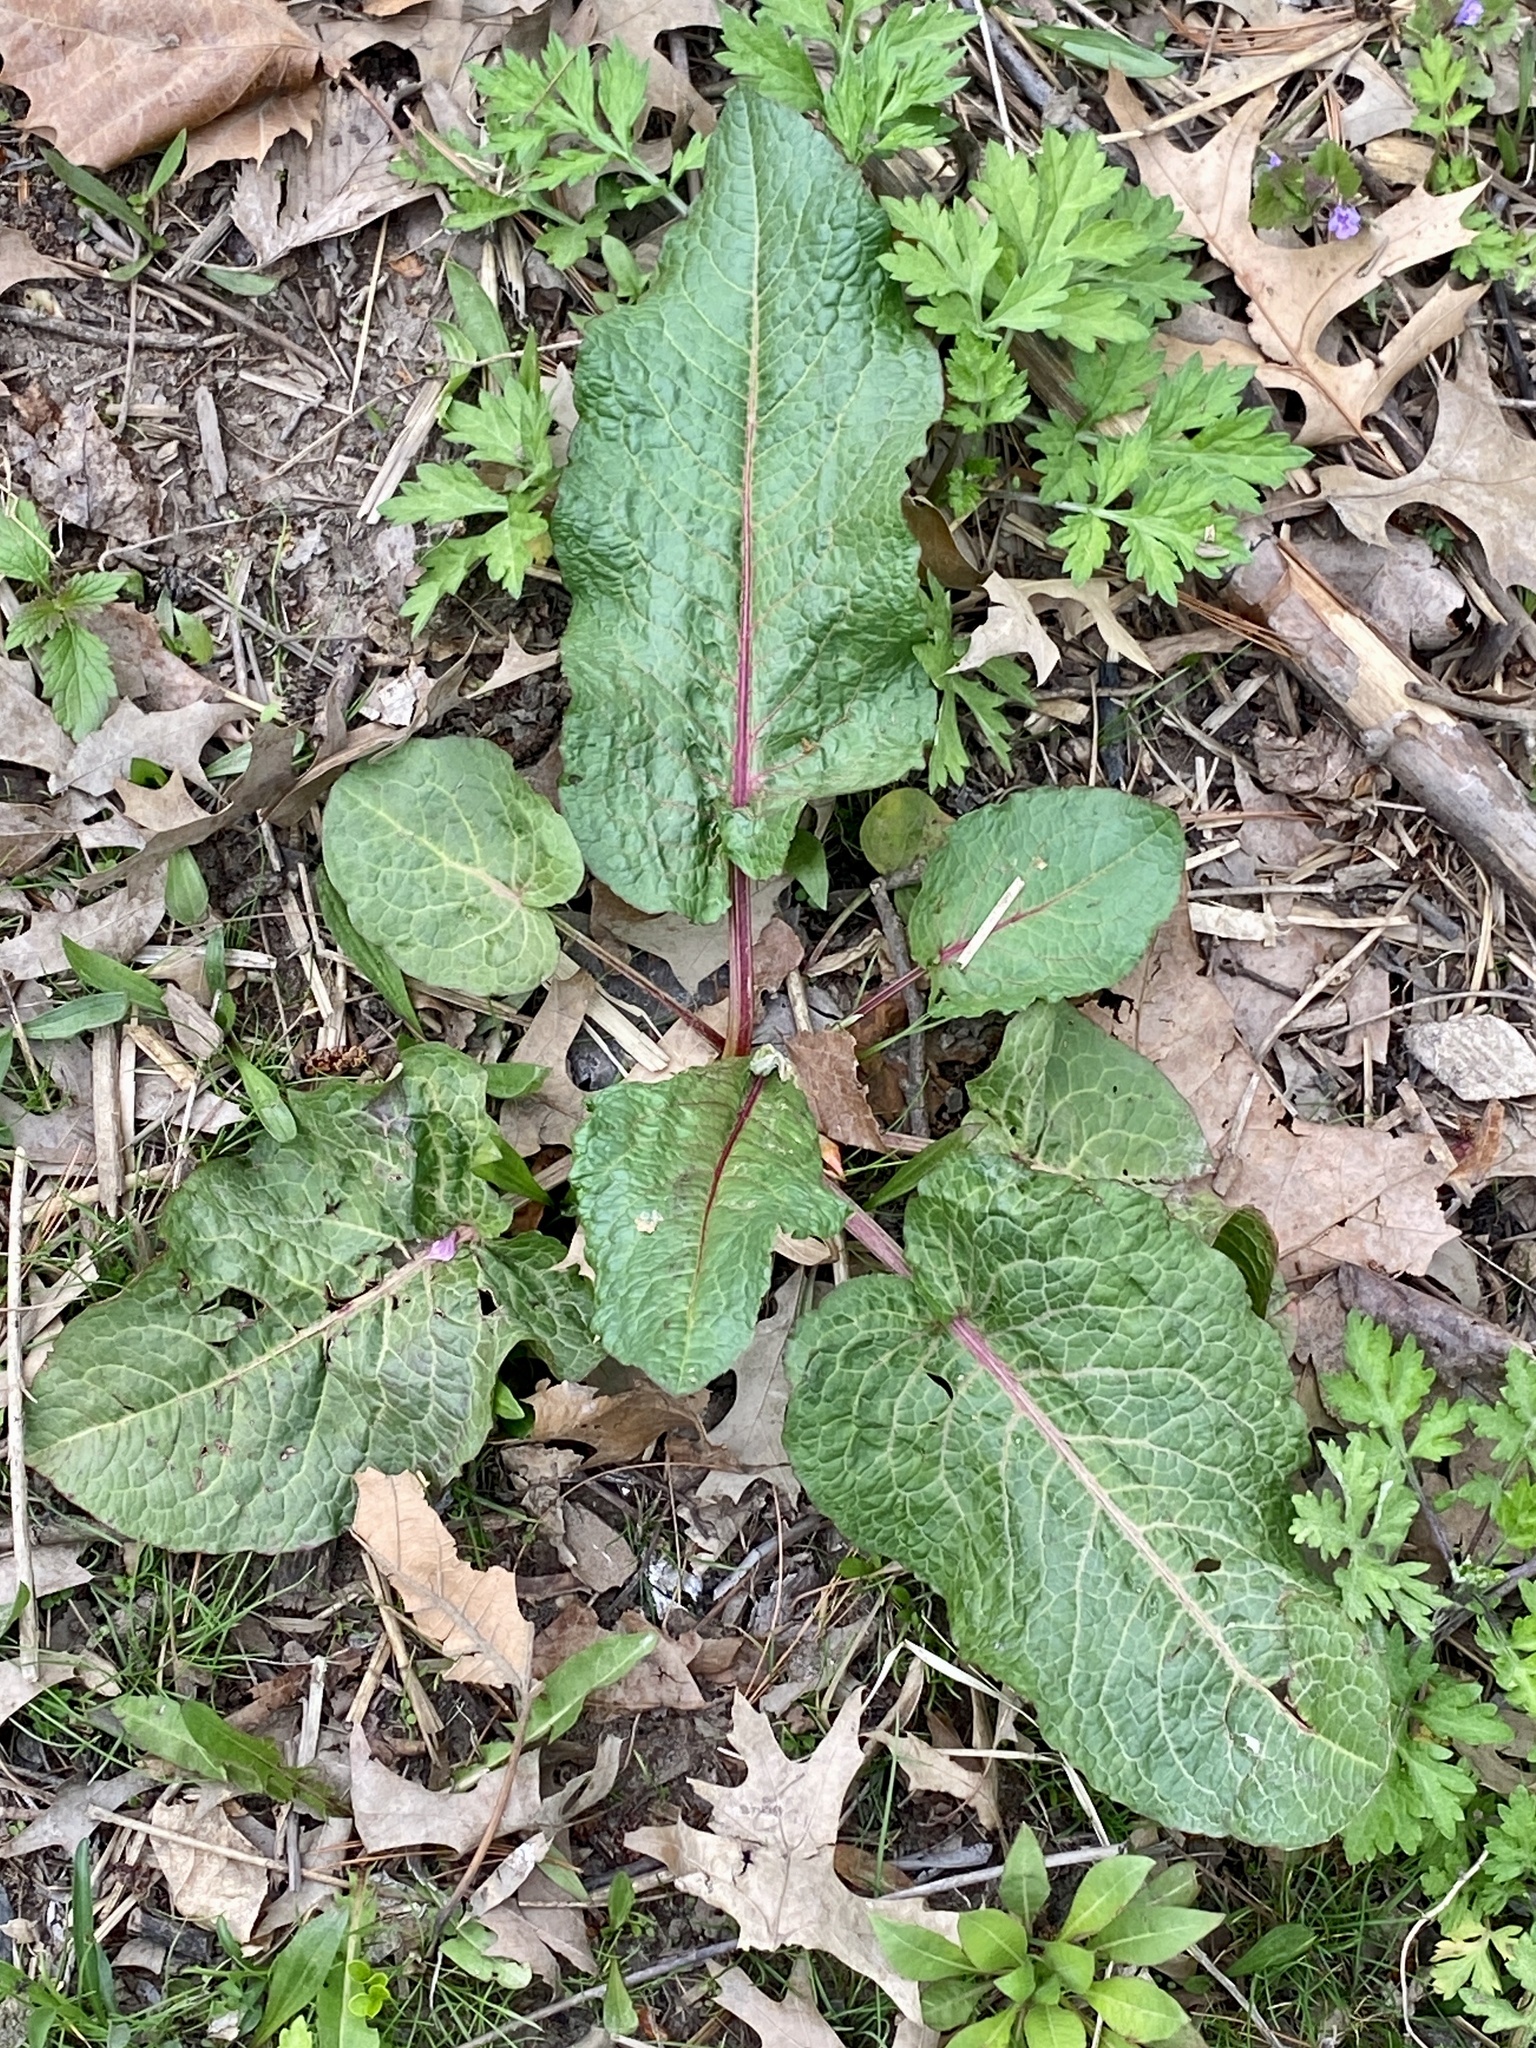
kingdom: Plantae
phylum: Tracheophyta
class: Magnoliopsida
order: Caryophyllales
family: Polygonaceae
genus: Rumex
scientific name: Rumex obtusifolius
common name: Bitter dock
